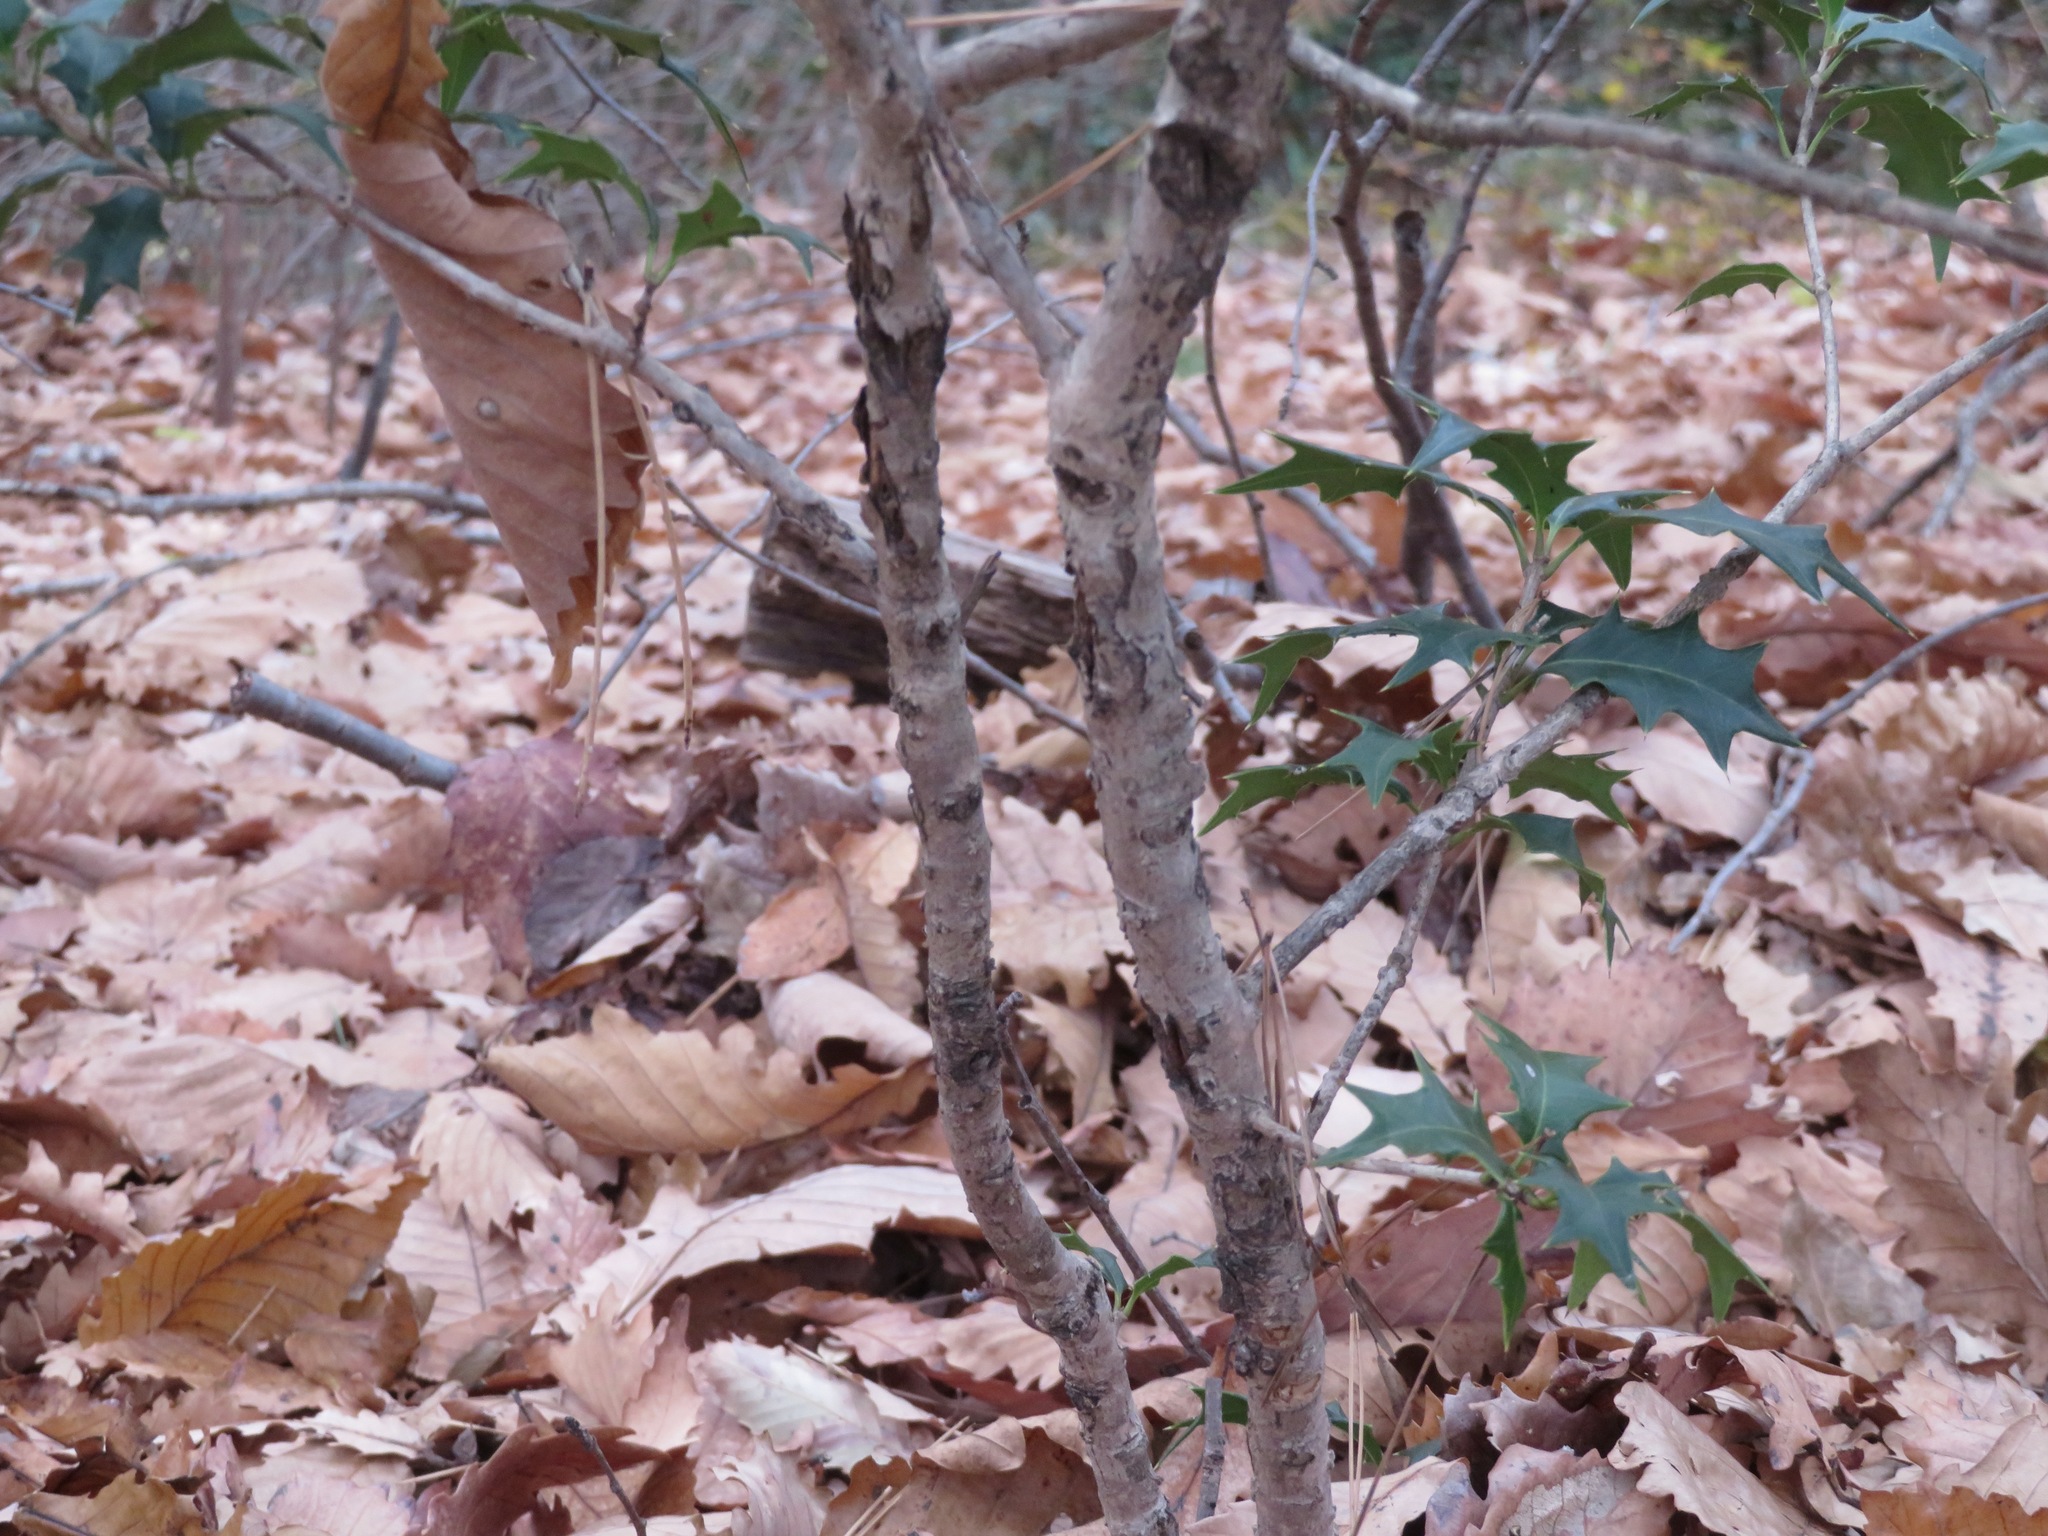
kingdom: Plantae
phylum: Tracheophyta
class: Magnoliopsida
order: Lamiales
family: Oleaceae
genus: Osmanthus
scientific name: Osmanthus heterophyllus
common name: Holly osmanthus
